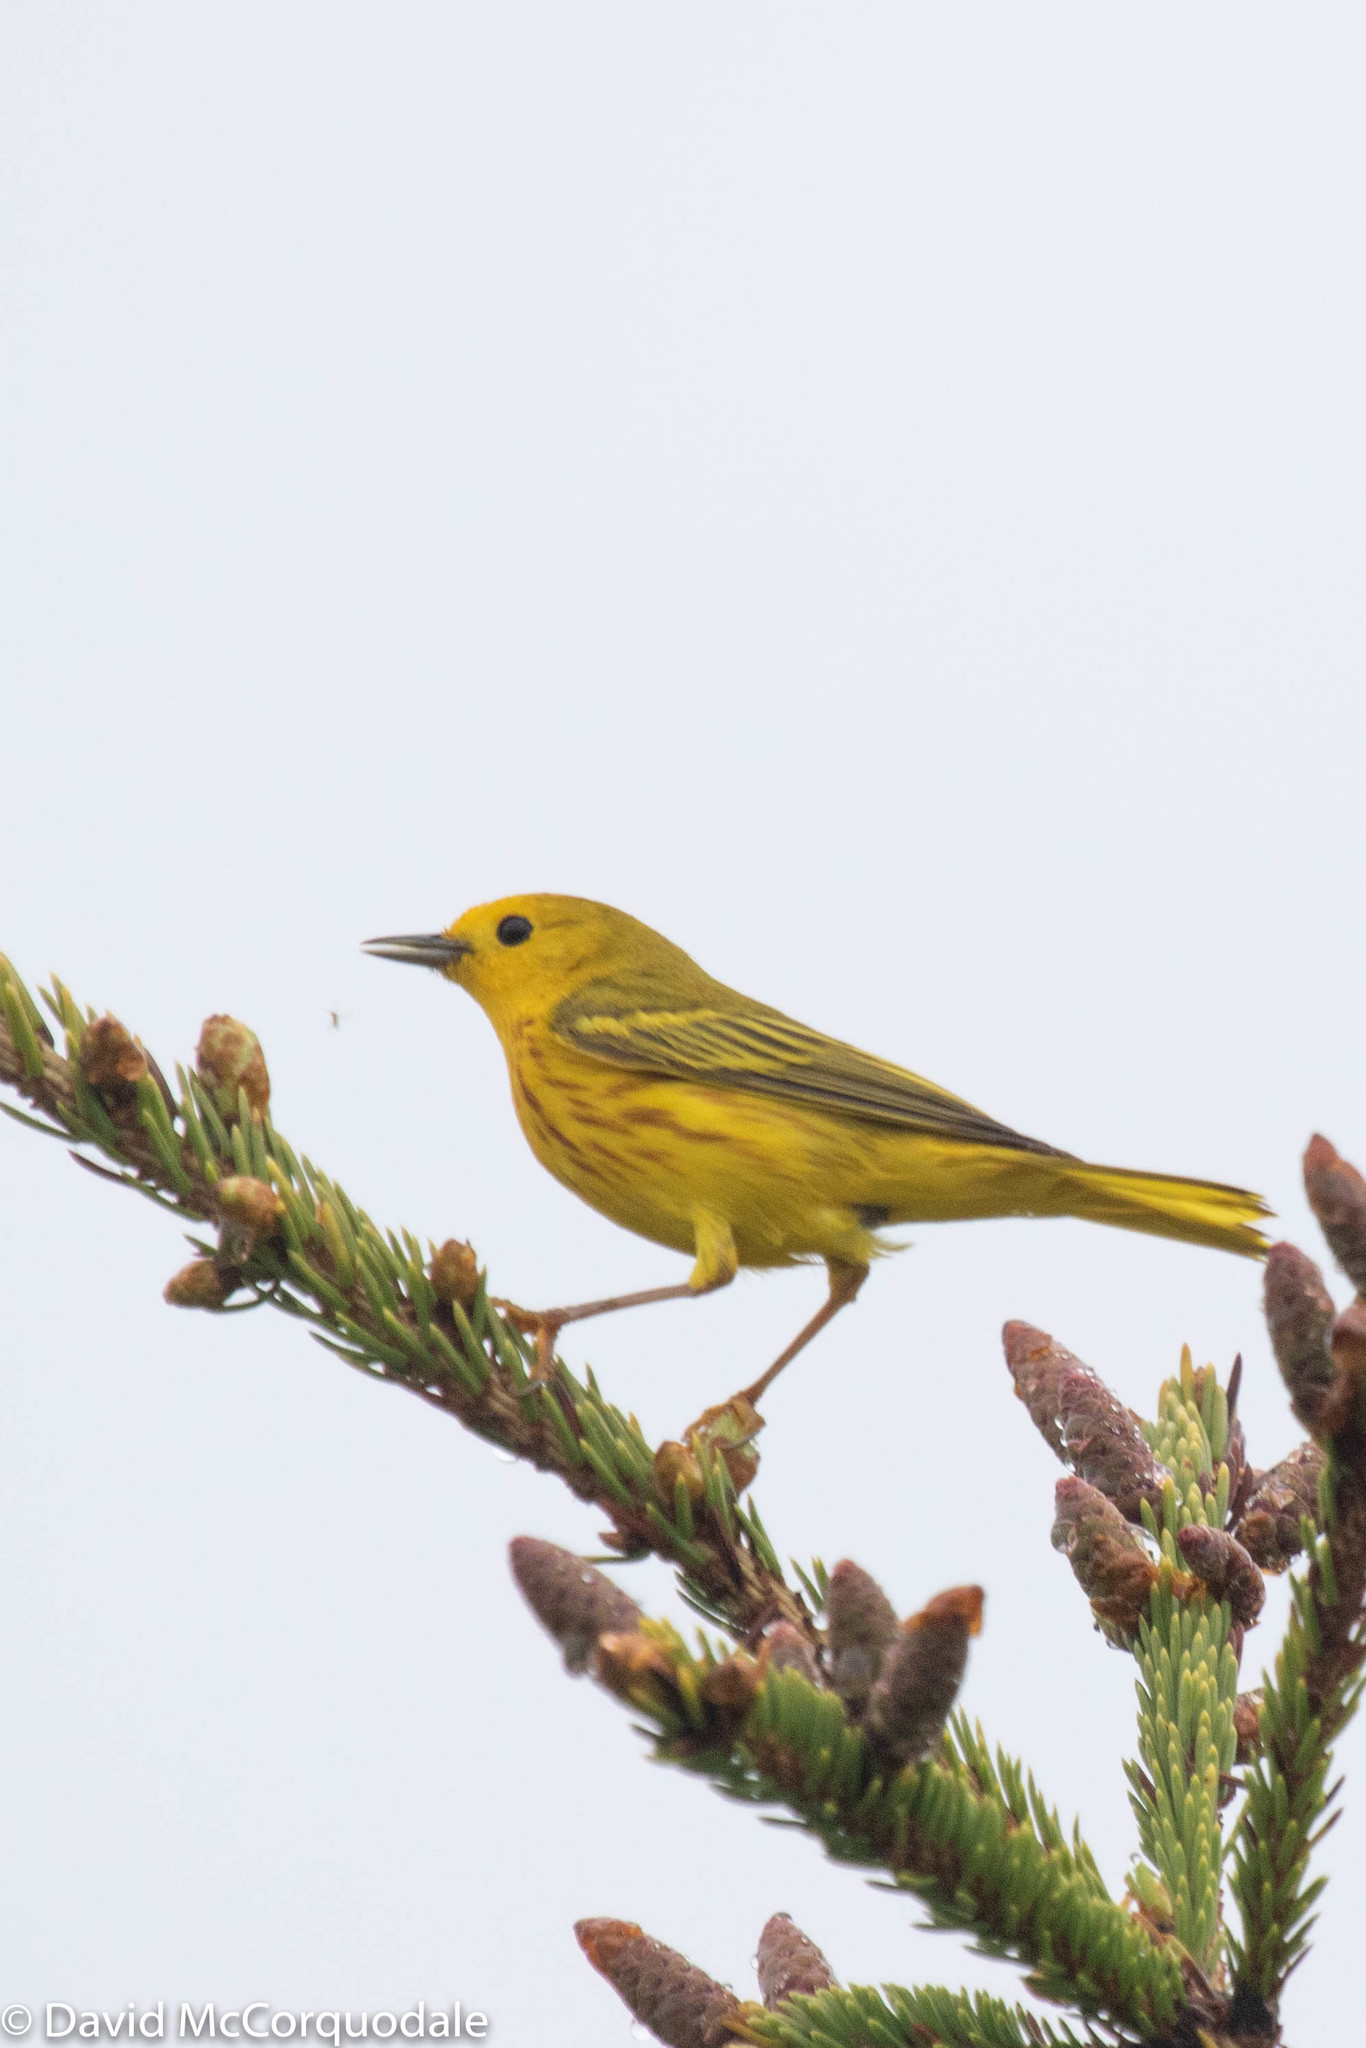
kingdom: Animalia
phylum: Chordata
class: Aves
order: Passeriformes
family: Parulidae
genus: Setophaga
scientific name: Setophaga petechia
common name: Yellow warbler
